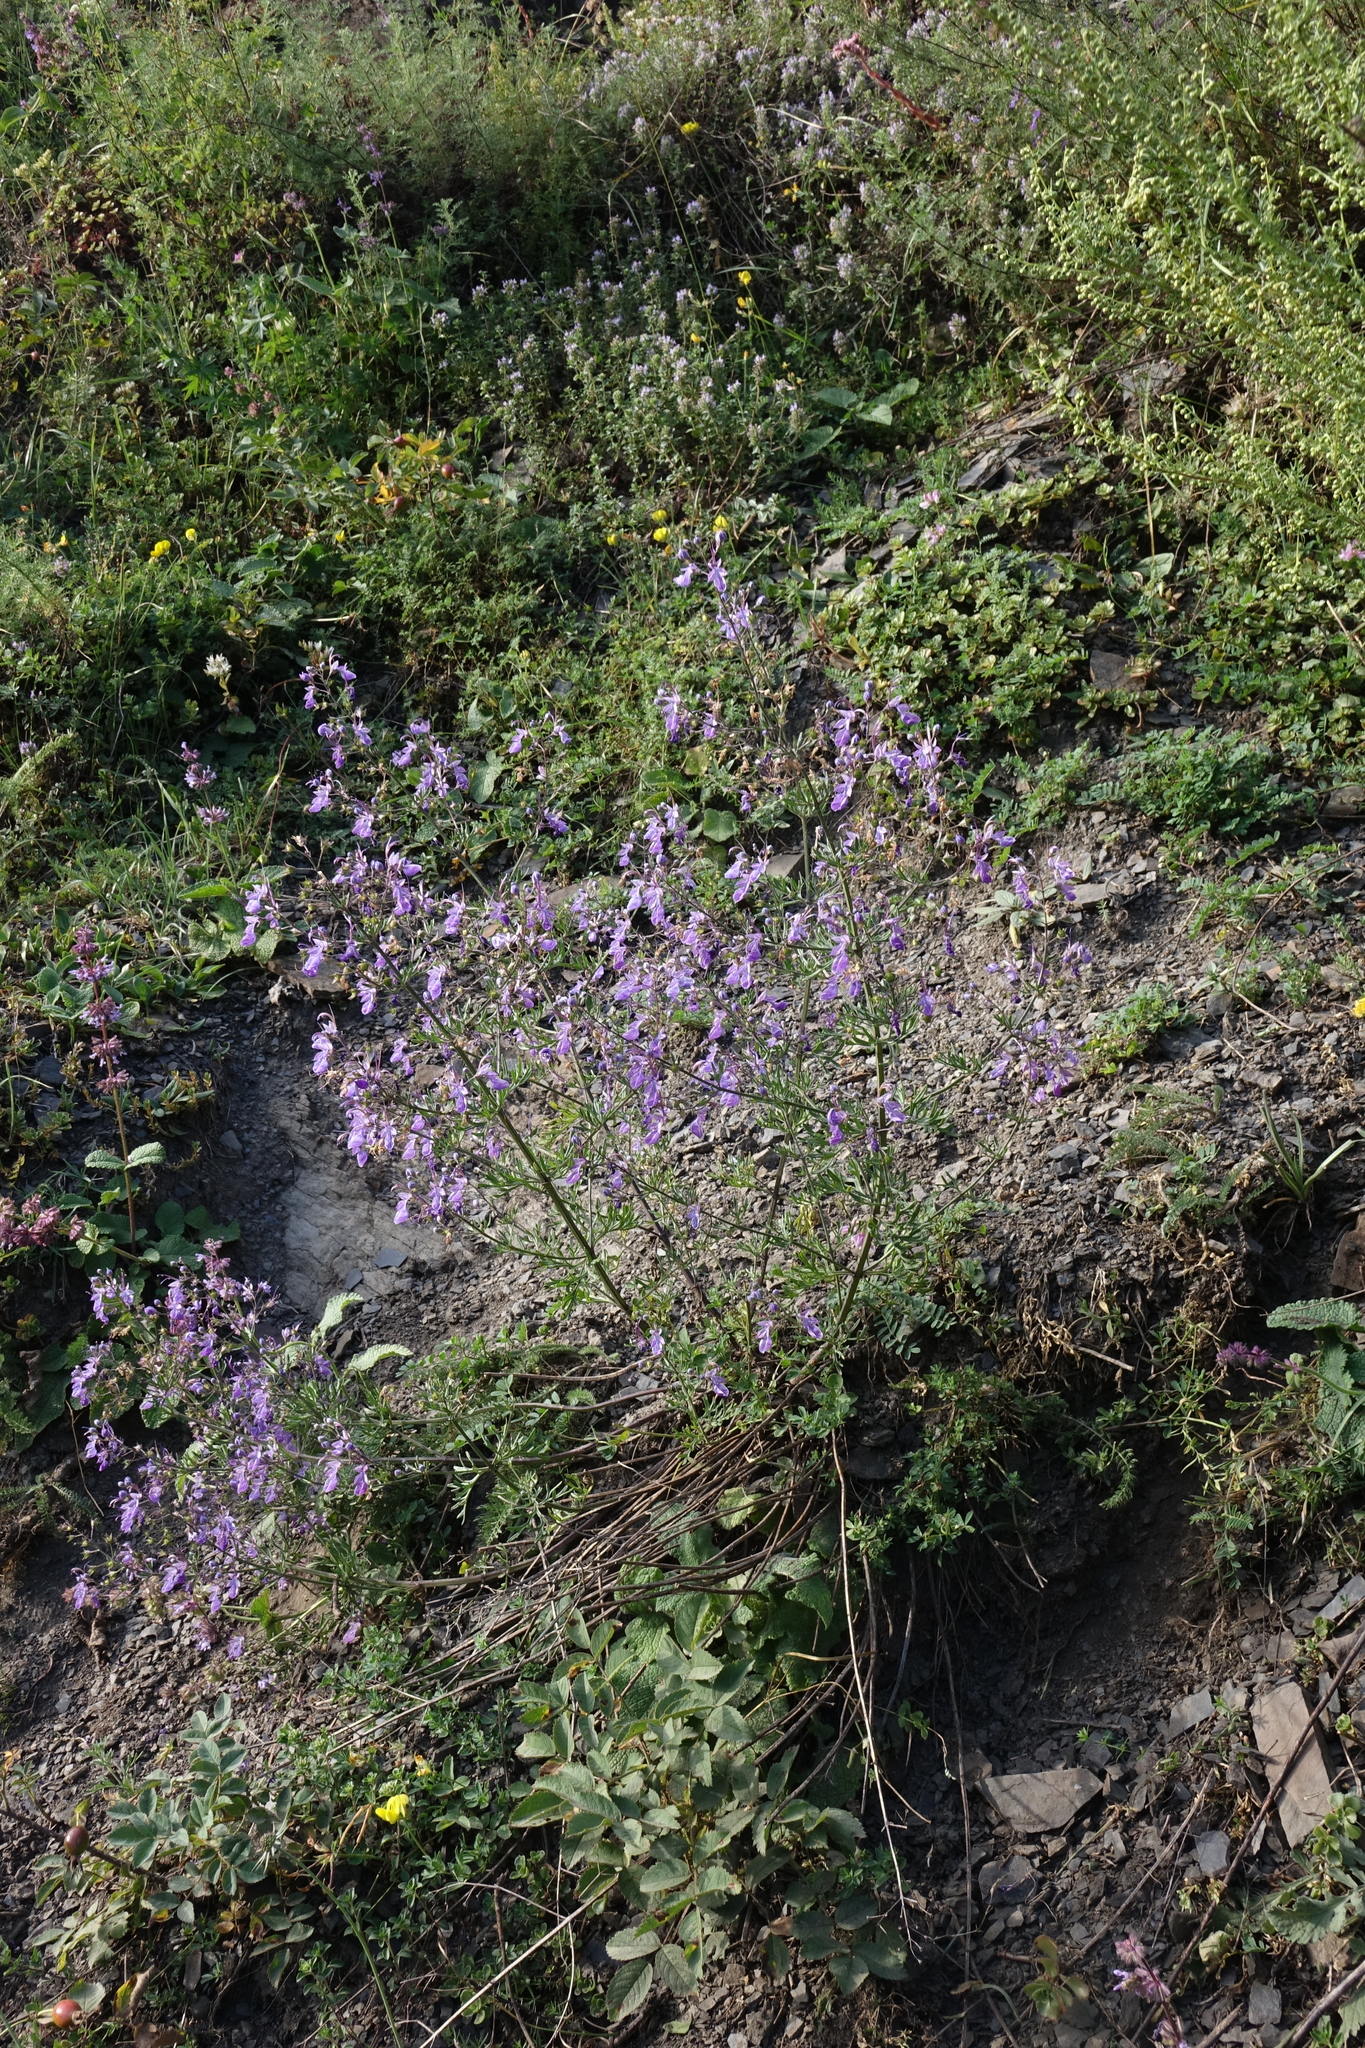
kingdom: Plantae
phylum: Tracheophyta
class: Magnoliopsida
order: Lamiales
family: Lamiaceae
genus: Teucrium
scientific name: Teucrium orientale
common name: Oriental germander
